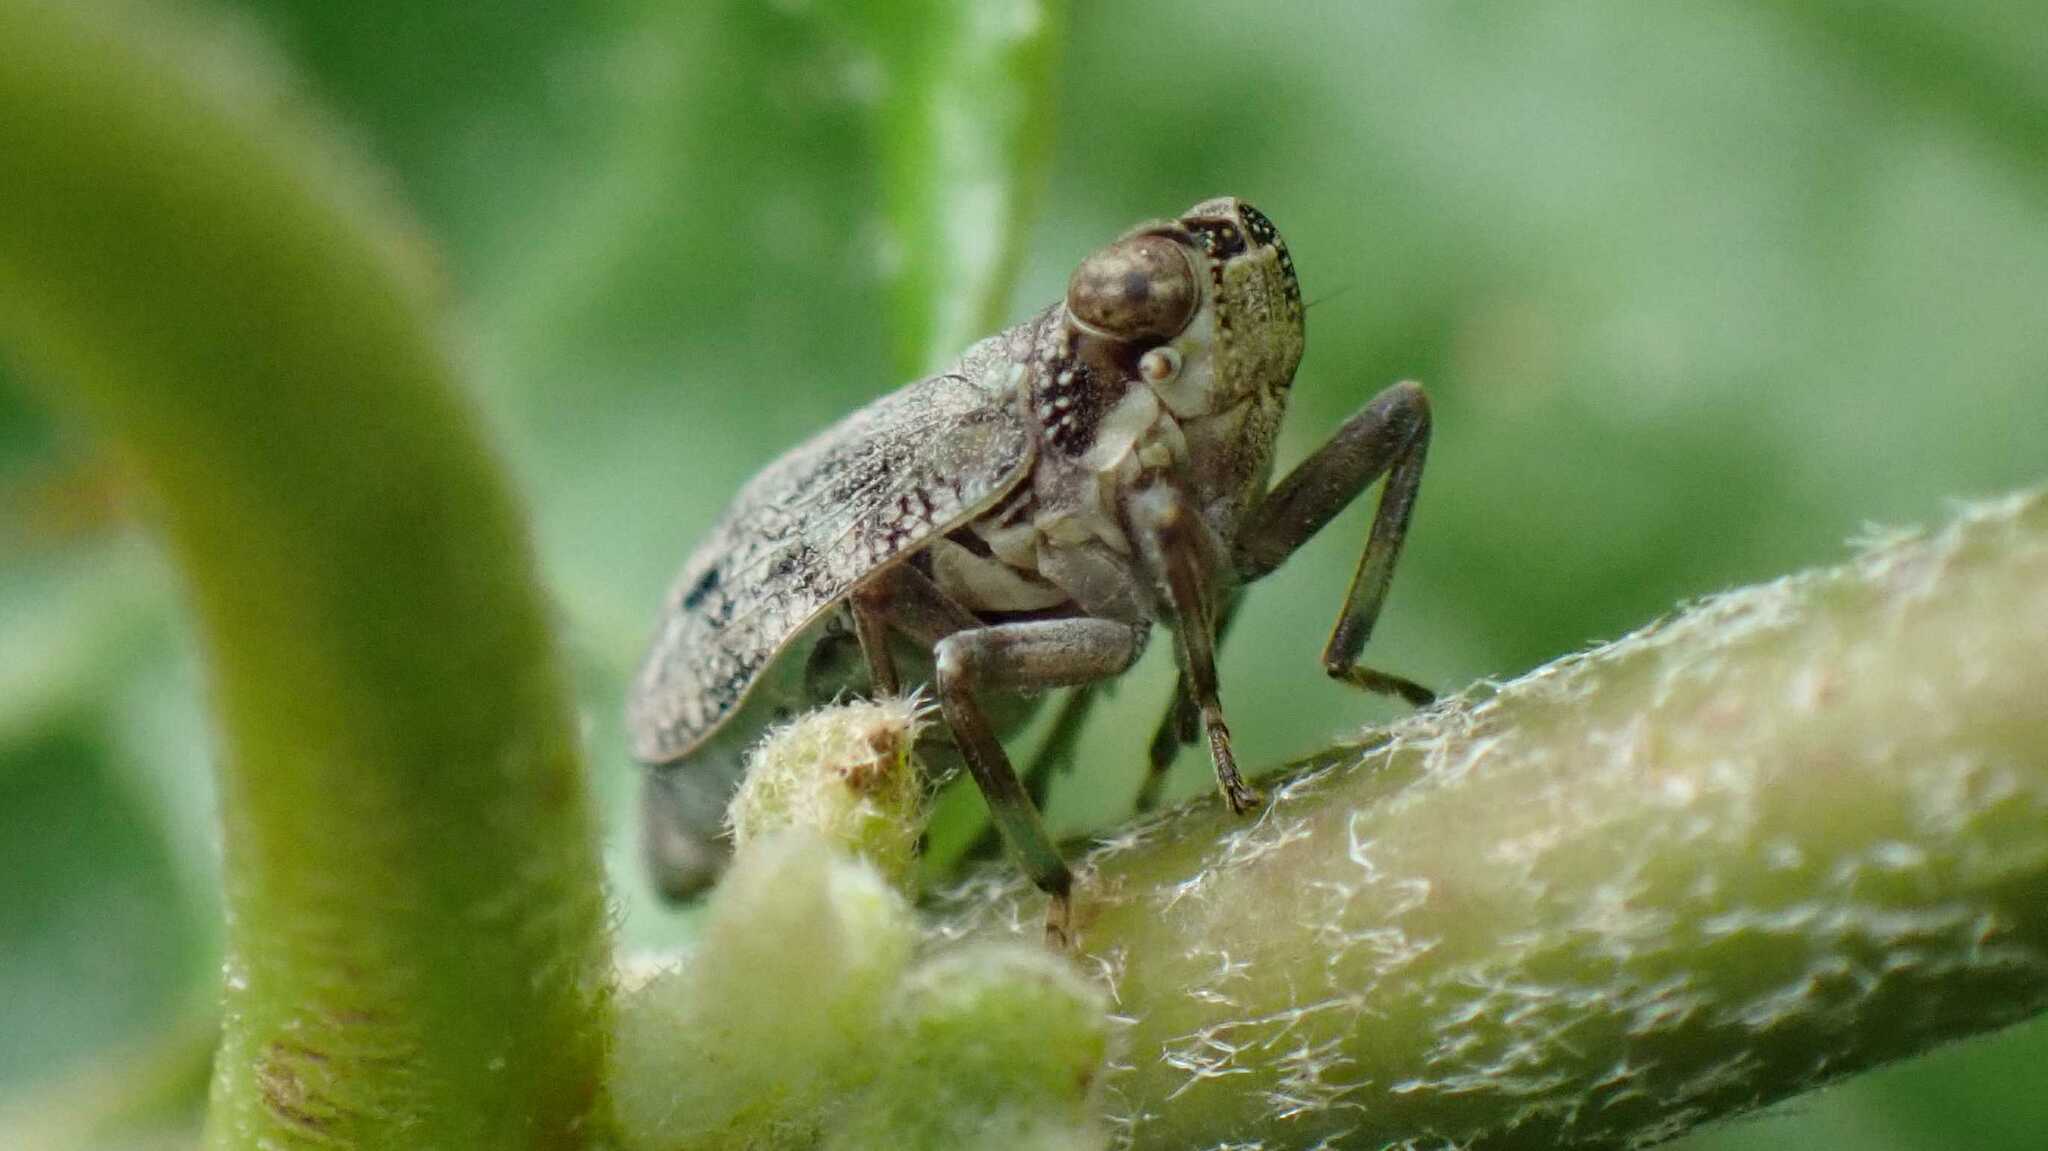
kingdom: Animalia
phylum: Arthropoda
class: Insecta
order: Hemiptera
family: Issidae
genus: Issus
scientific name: Issus coleoptratus
